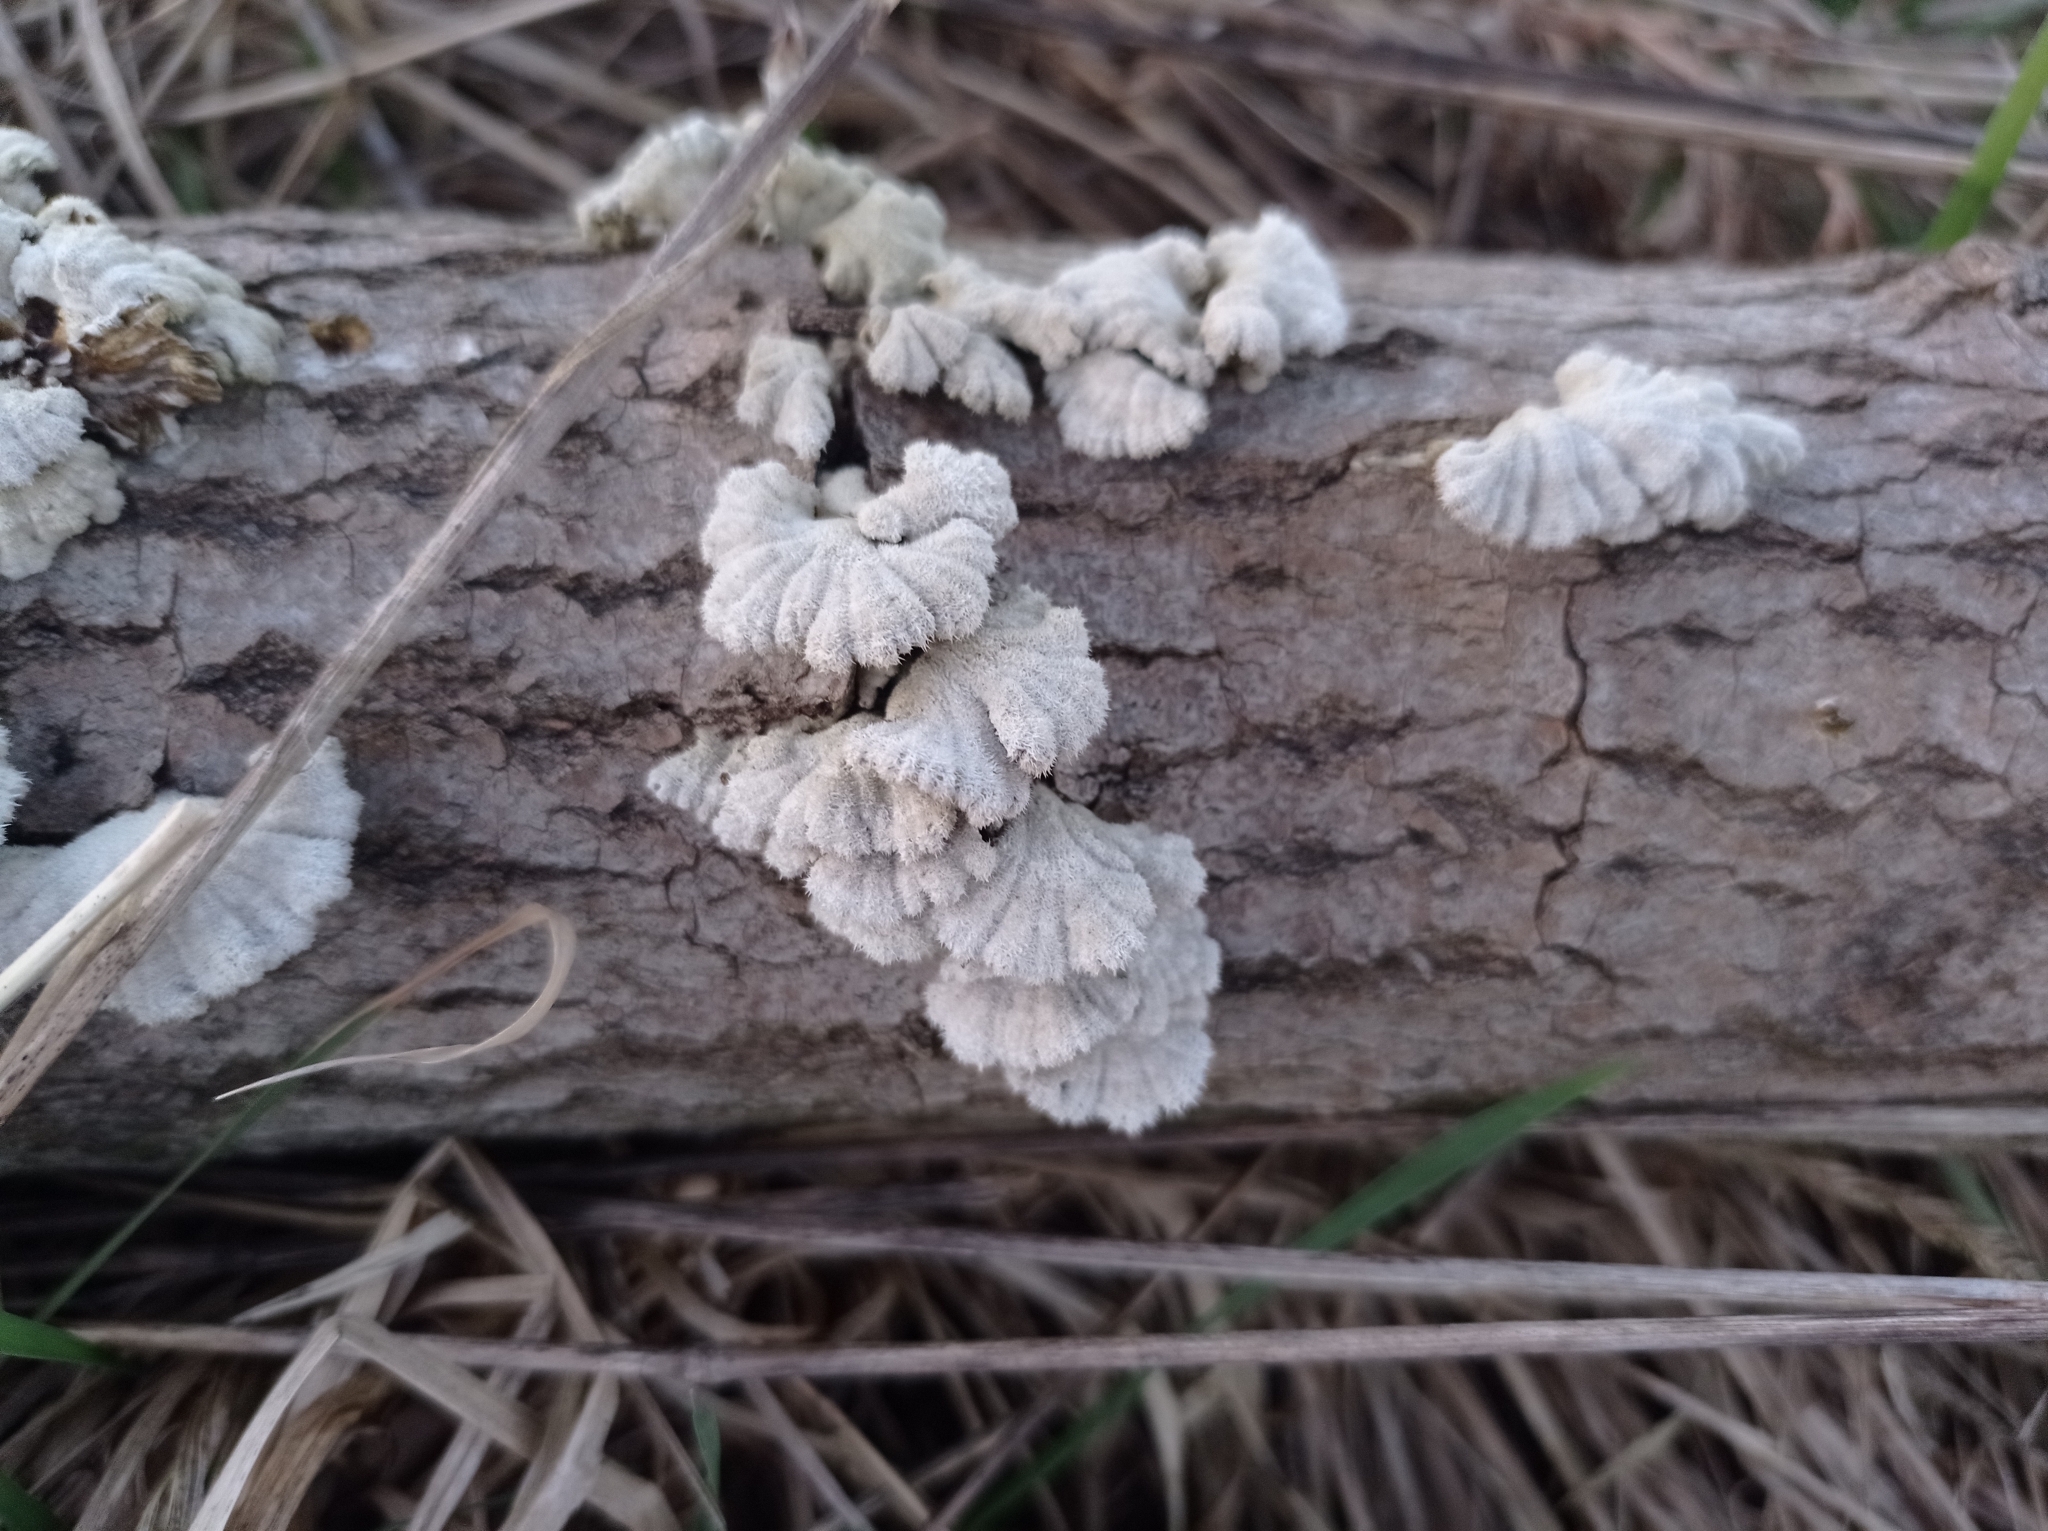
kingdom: Fungi
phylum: Basidiomycota
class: Agaricomycetes
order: Agaricales
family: Schizophyllaceae
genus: Schizophyllum
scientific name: Schizophyllum commune
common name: Common porecrust
